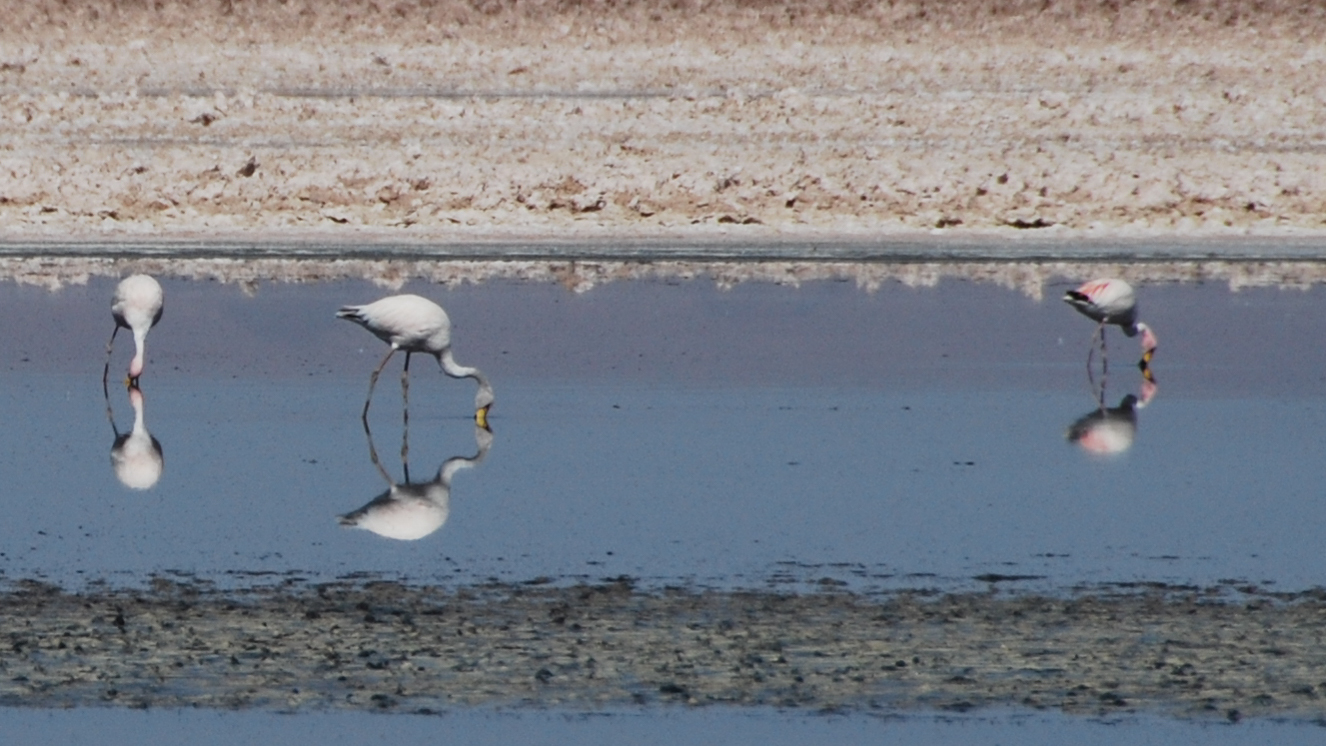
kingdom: Animalia
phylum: Chordata
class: Aves
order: Phoenicopteriformes
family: Phoenicopteridae
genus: Phoenicoparrus
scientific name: Phoenicoparrus andinus
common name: Andean flamingo
